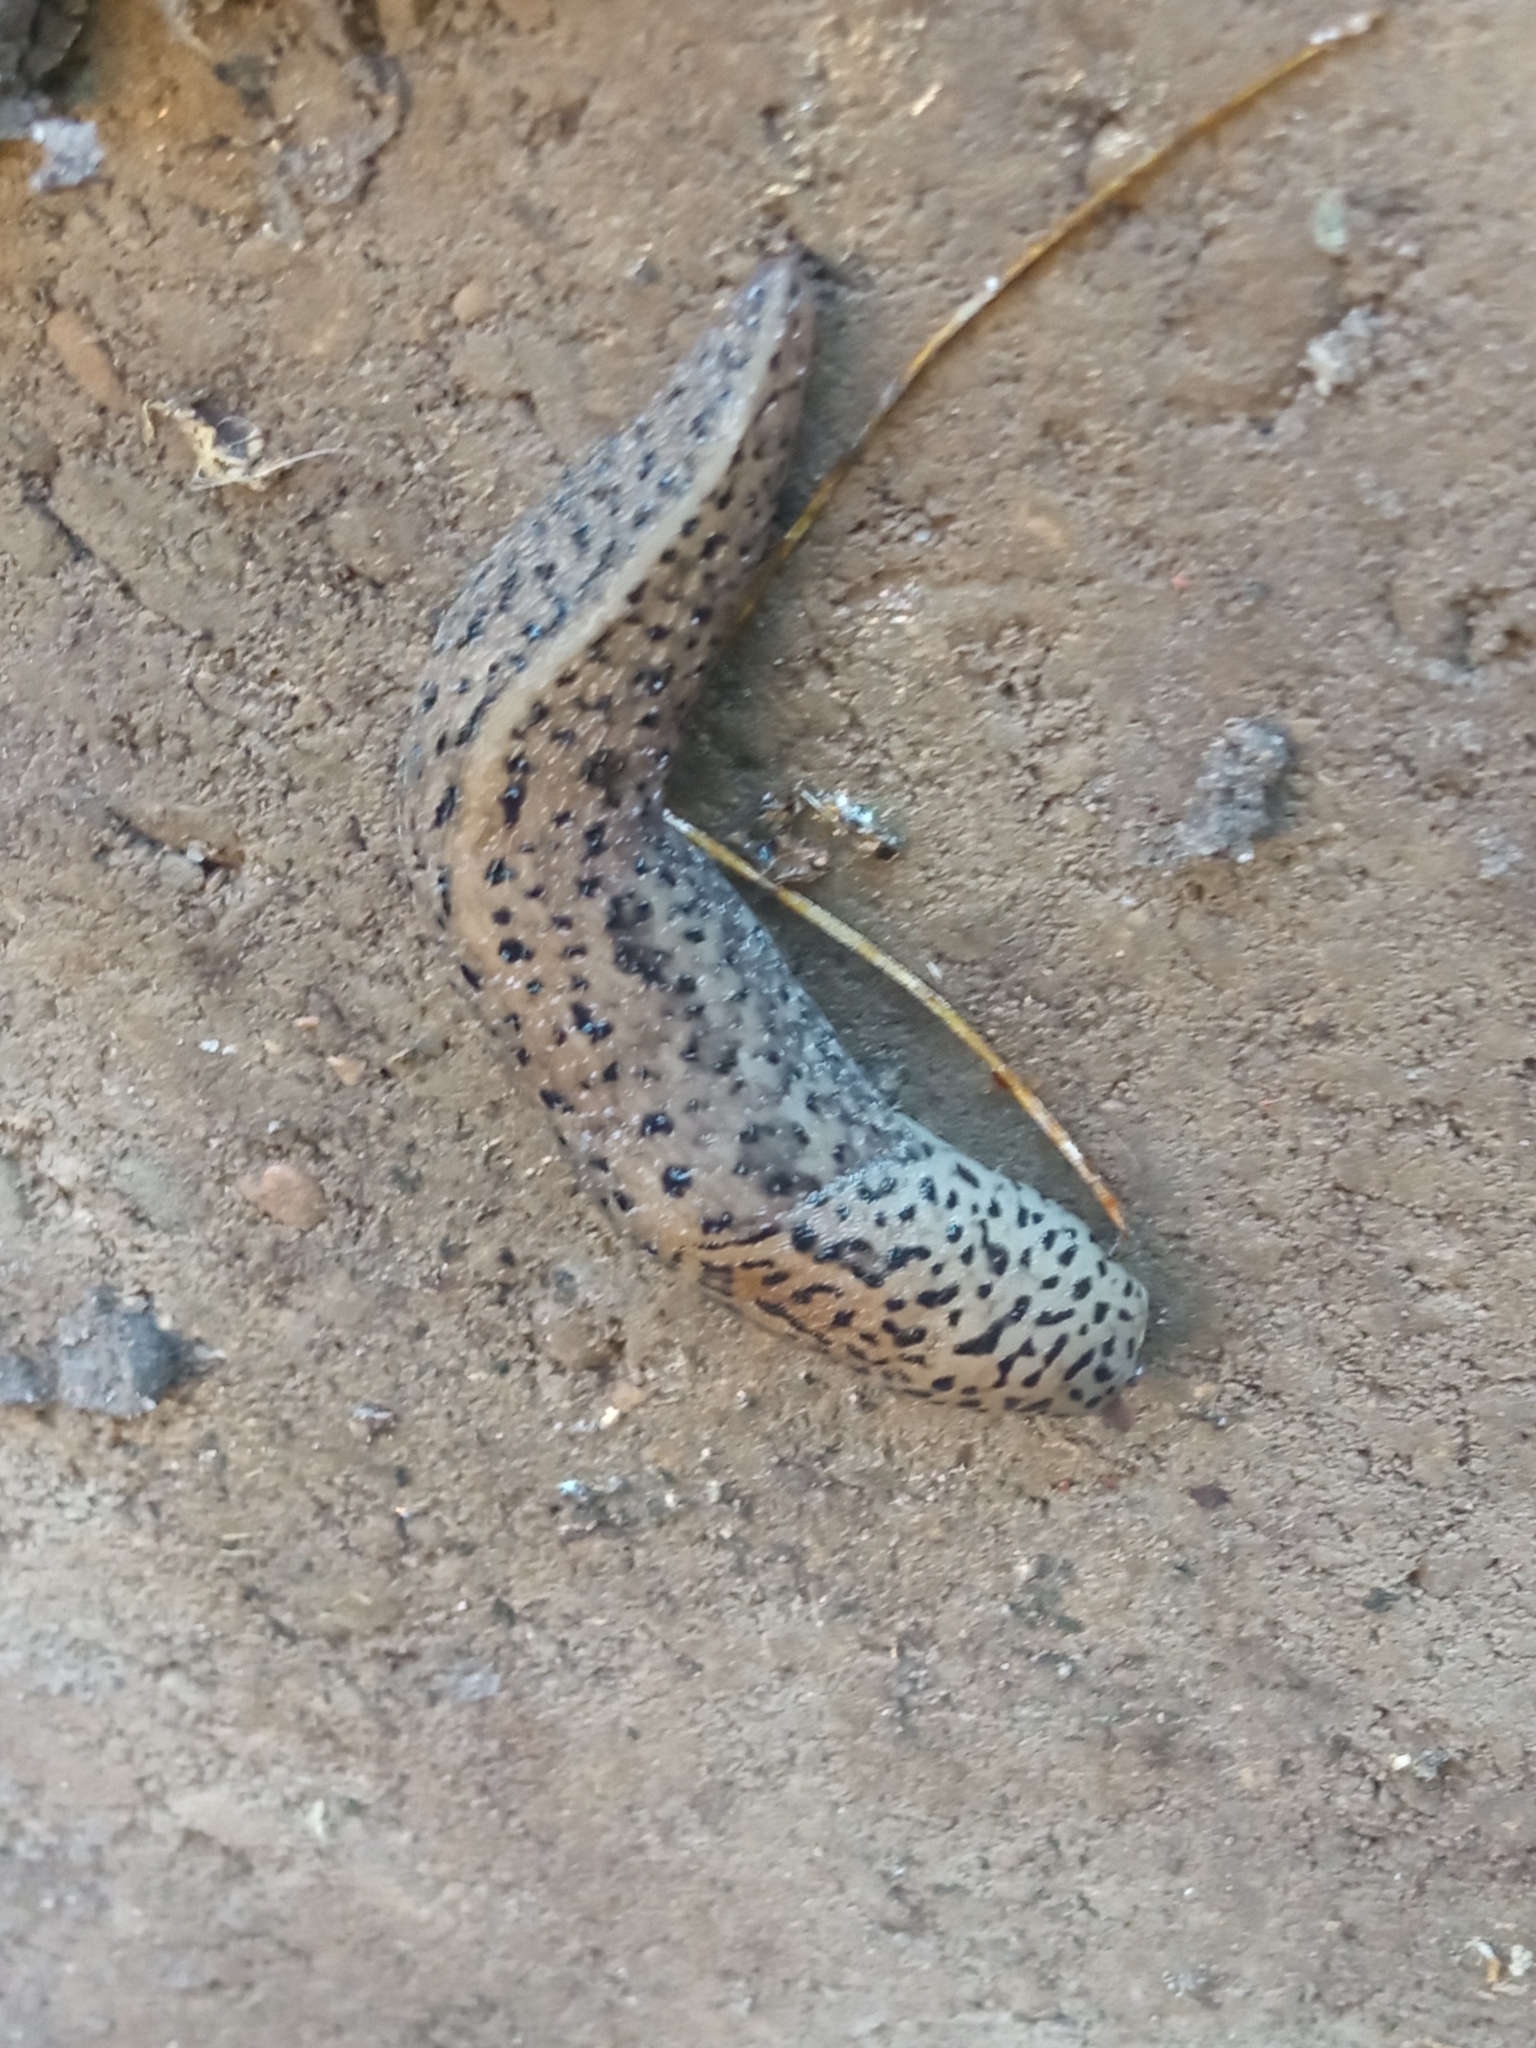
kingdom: Animalia
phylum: Mollusca
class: Gastropoda
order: Stylommatophora
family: Limacidae
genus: Limax
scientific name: Limax maximus
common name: Great grey slug
